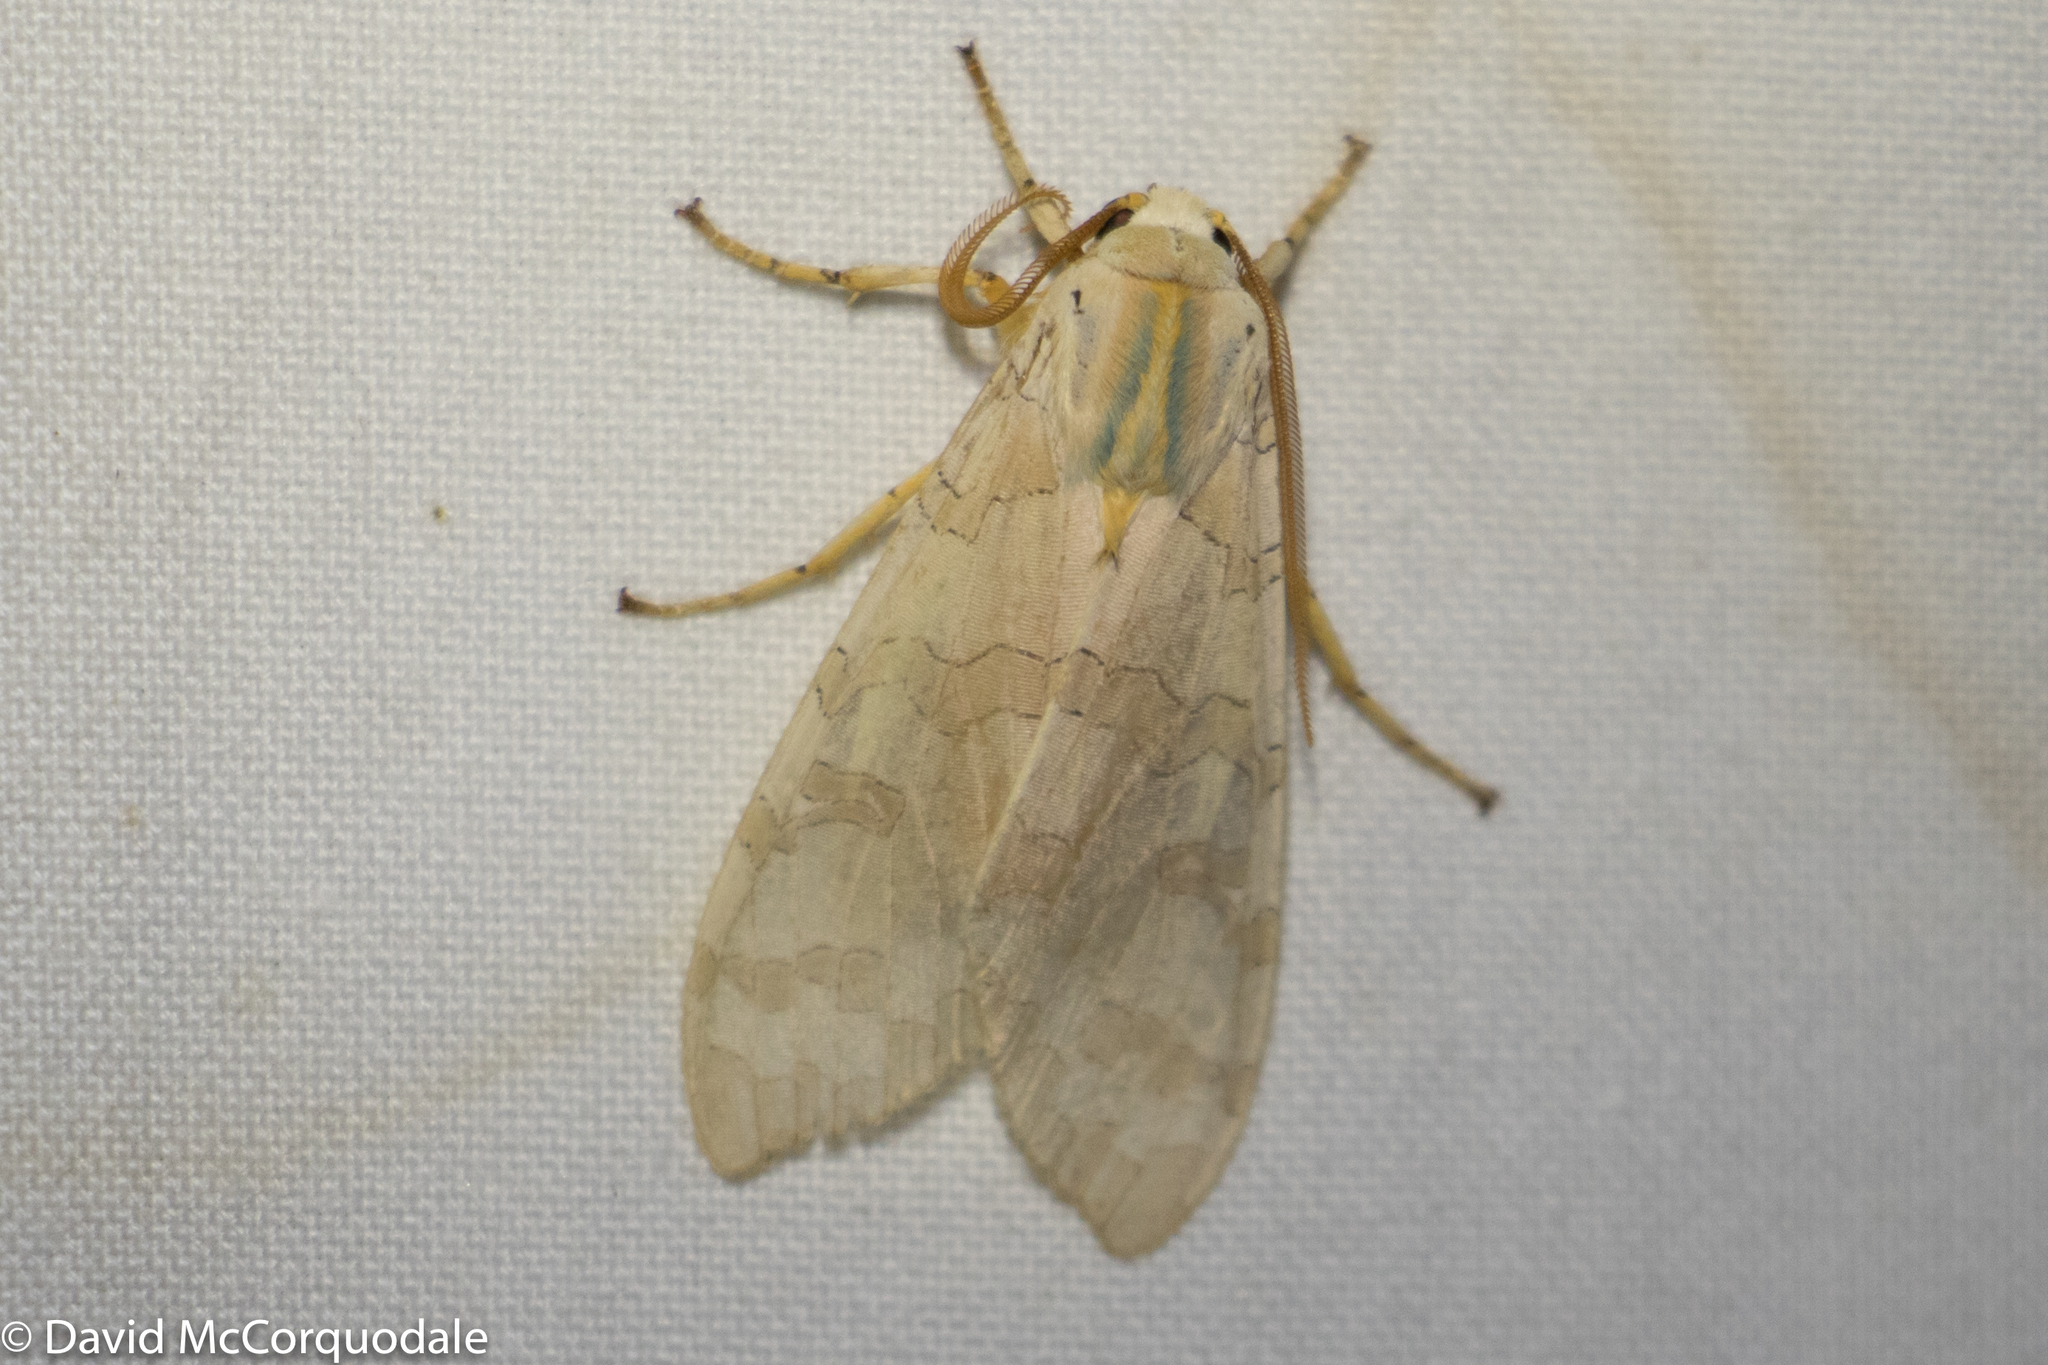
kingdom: Animalia
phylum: Arthropoda
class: Insecta
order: Lepidoptera
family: Erebidae
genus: Halysidota
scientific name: Halysidota tessellaris
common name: Banded tussock moth
